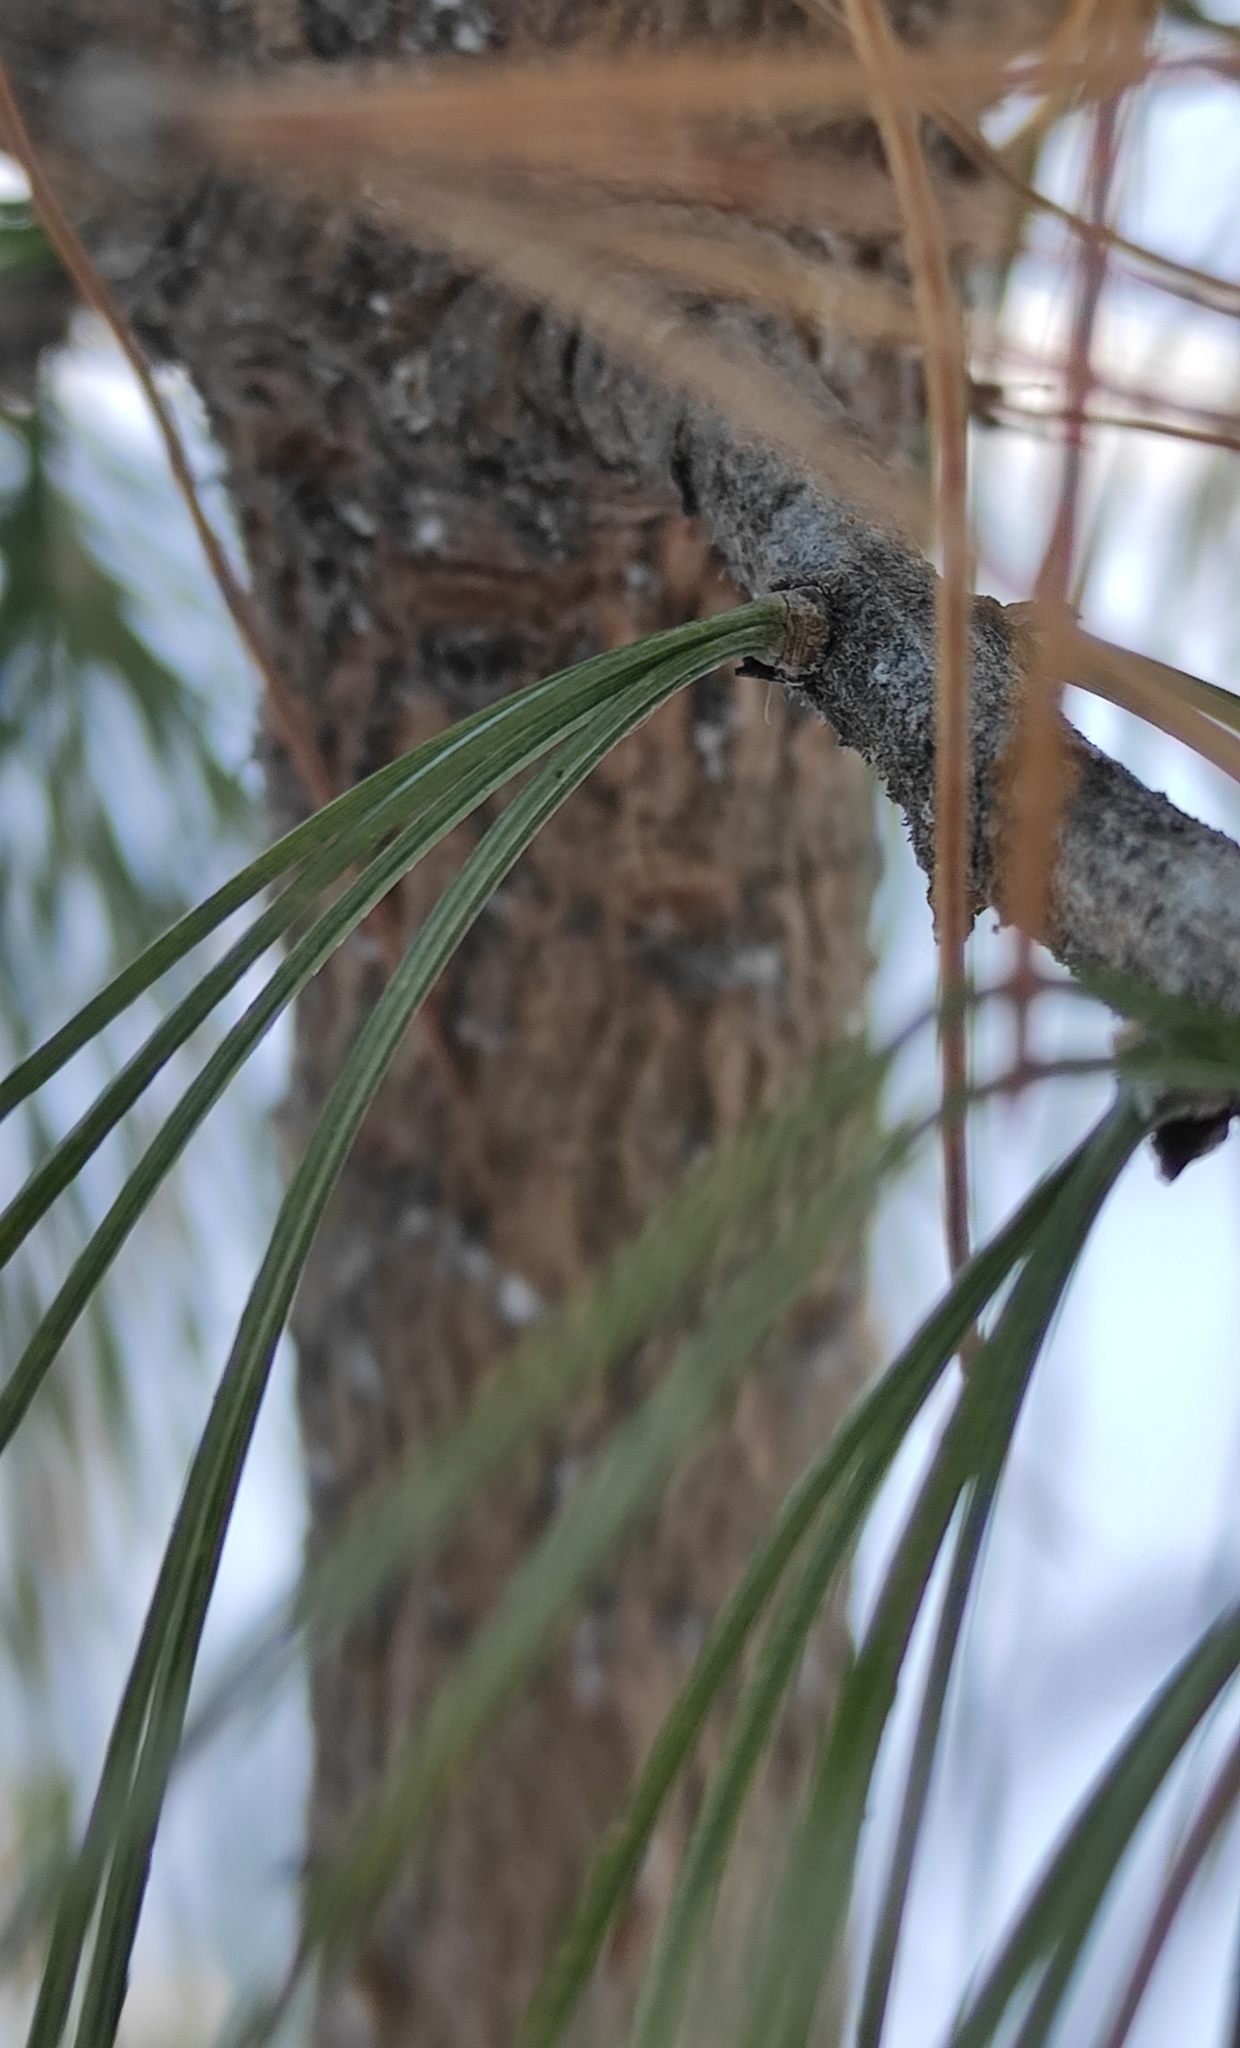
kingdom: Plantae
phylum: Tracheophyta
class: Pinopsida
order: Pinales
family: Pinaceae
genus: Pinus
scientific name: Pinus sibirica
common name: Siberian pine
